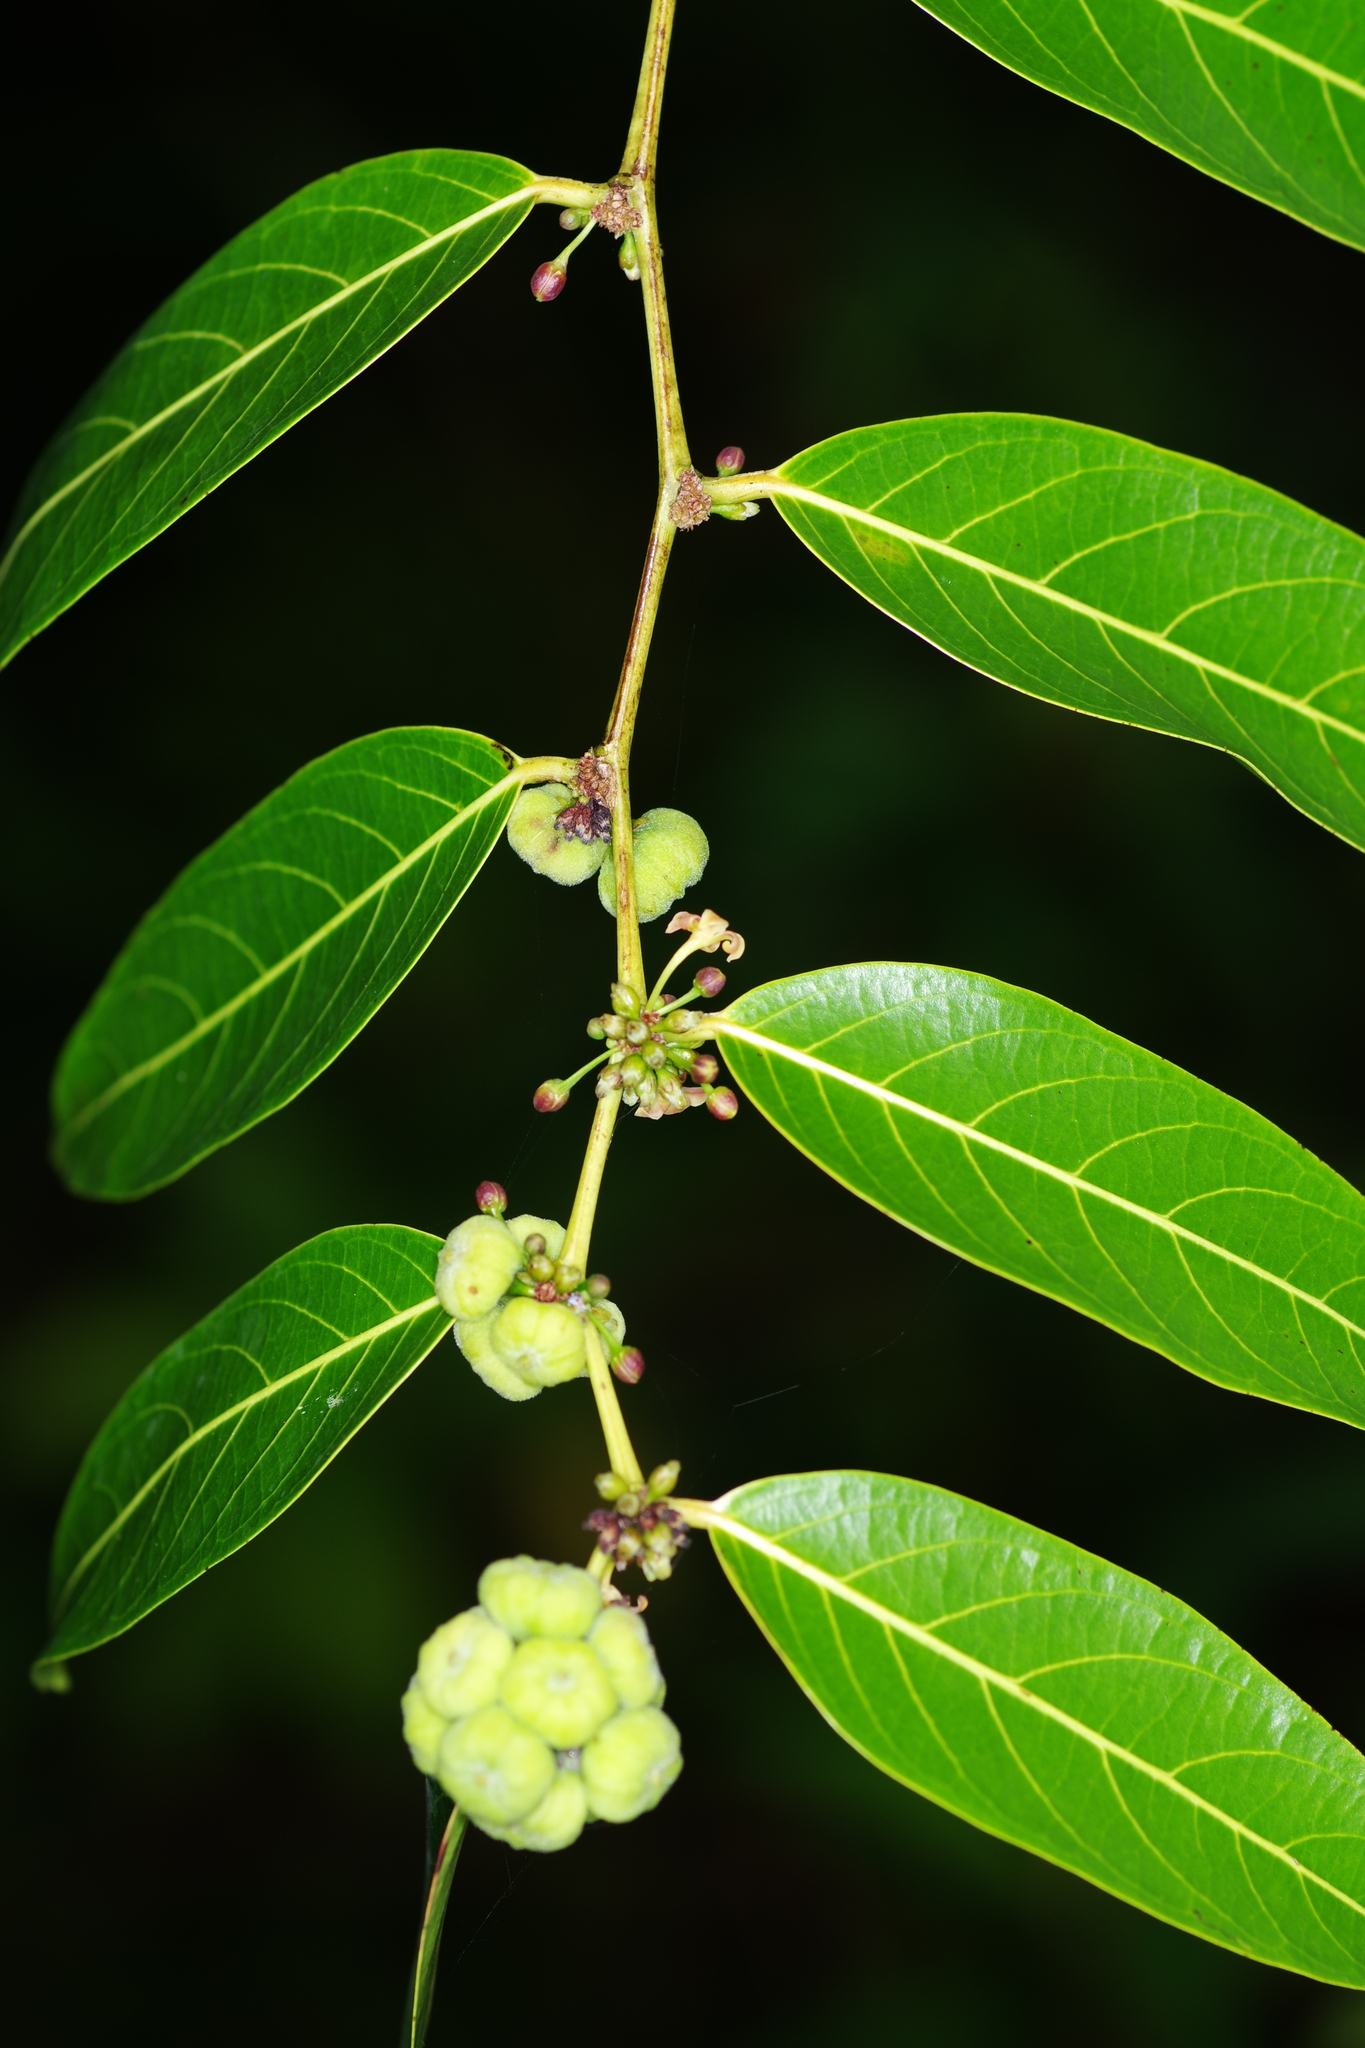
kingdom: Plantae
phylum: Tracheophyta
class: Magnoliopsida
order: Malpighiales
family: Phyllanthaceae
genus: Glochidion
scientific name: Glochidion littorale
